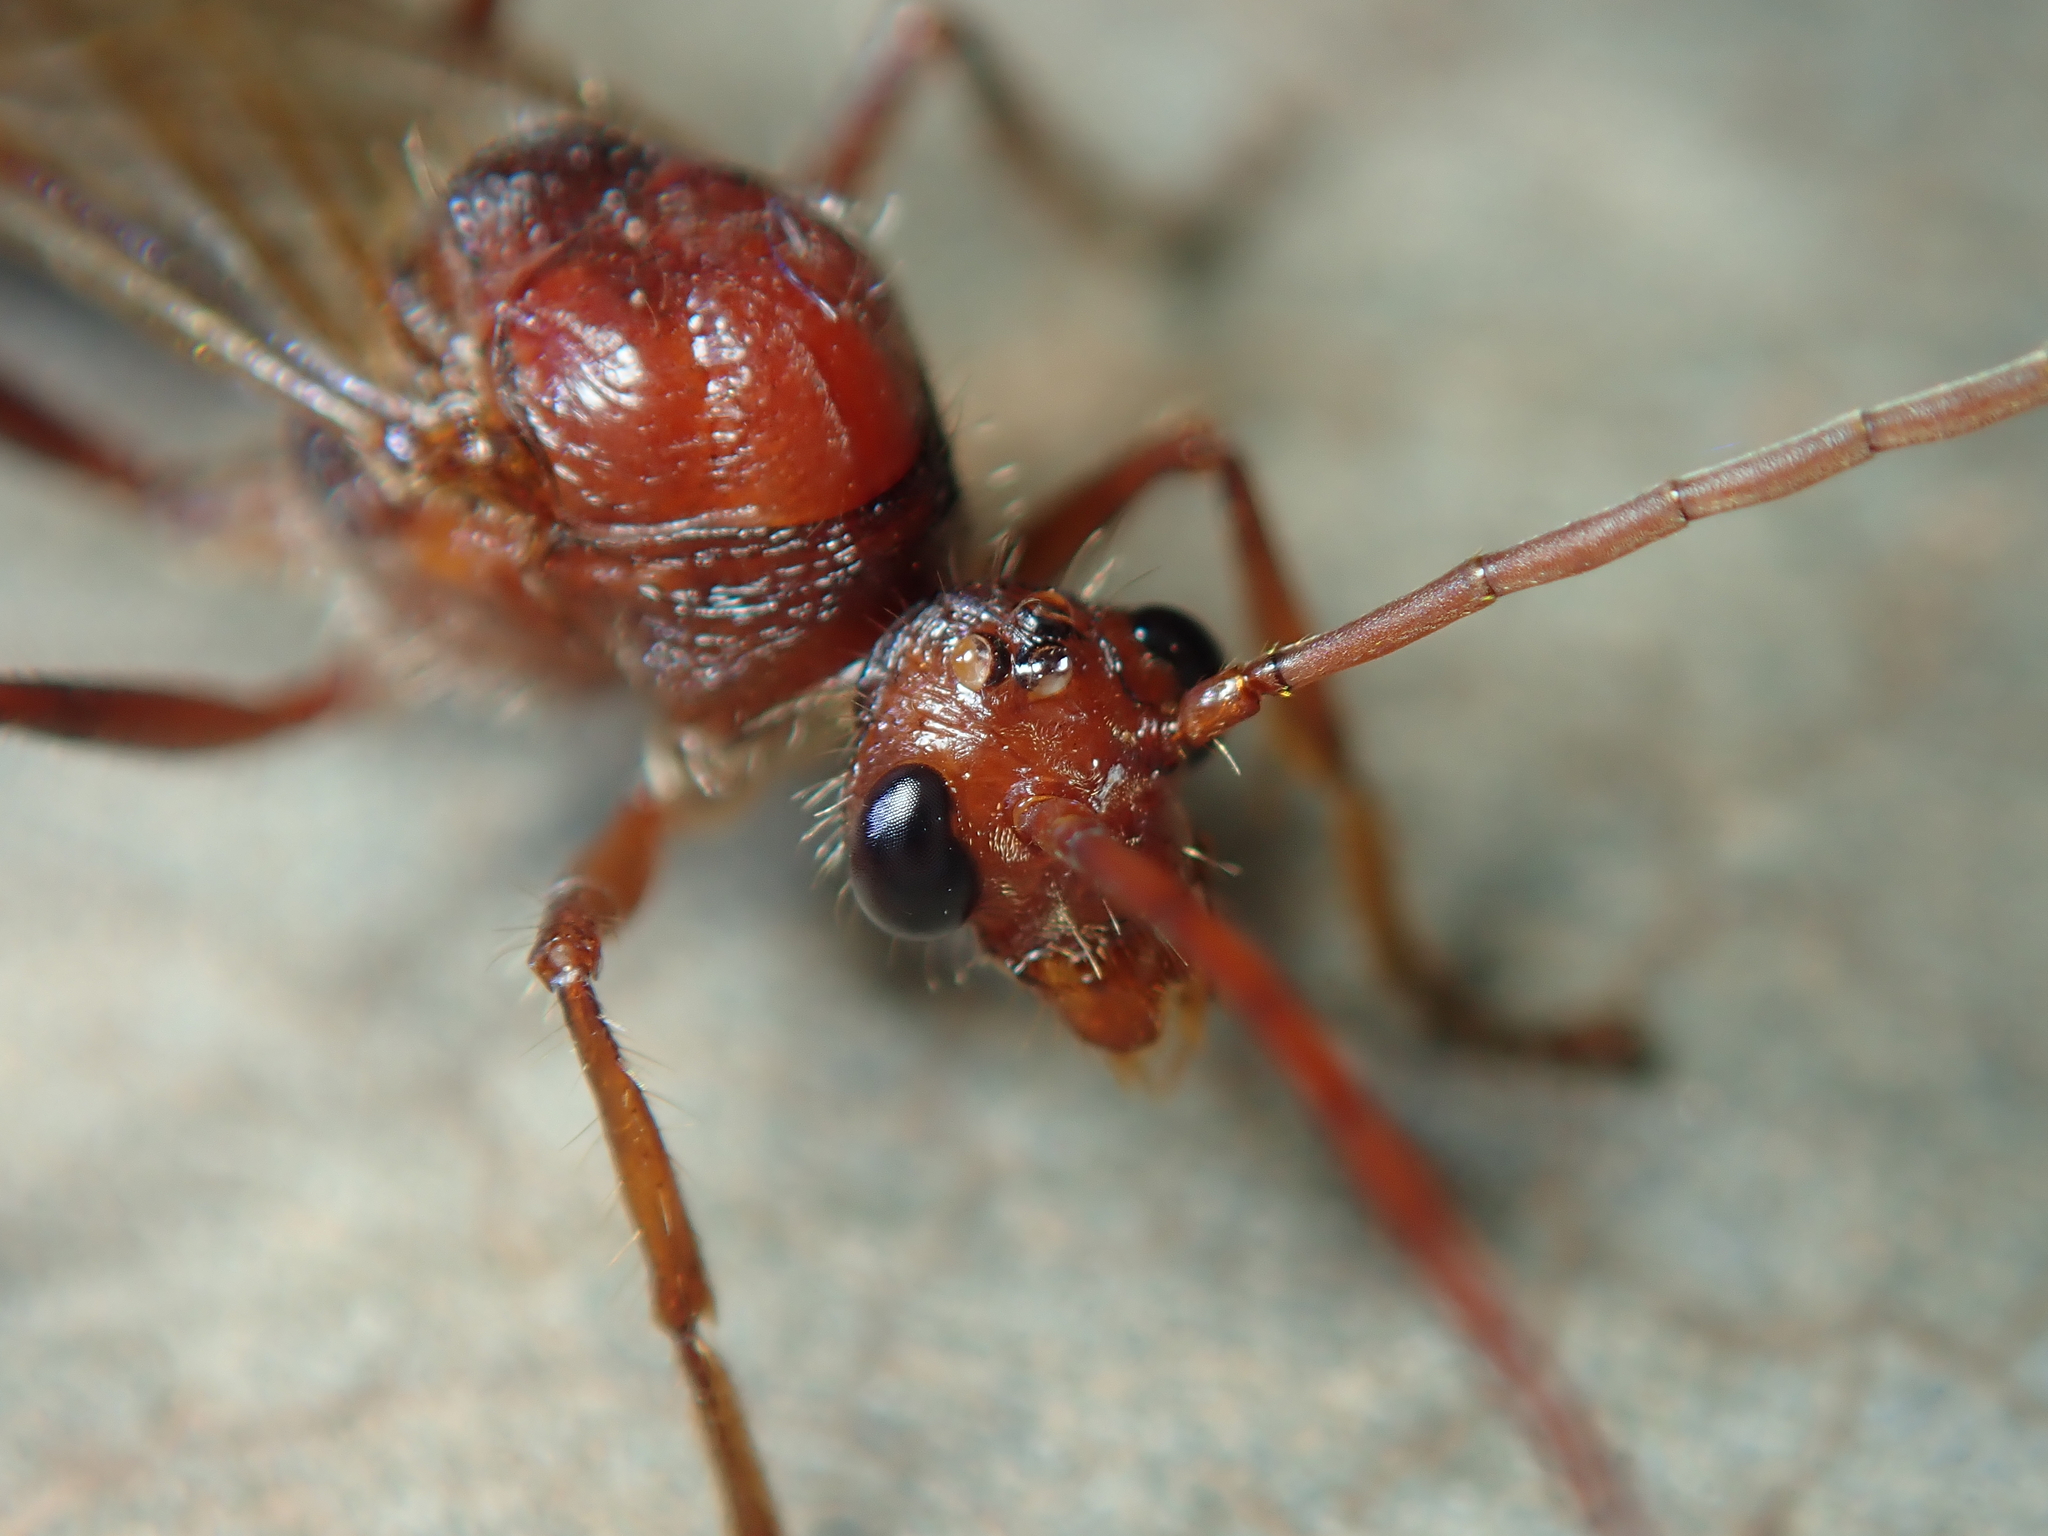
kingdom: Animalia
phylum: Arthropoda
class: Insecta
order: Hymenoptera
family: Formicidae
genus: Paraponera
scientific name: Paraponera clavata
